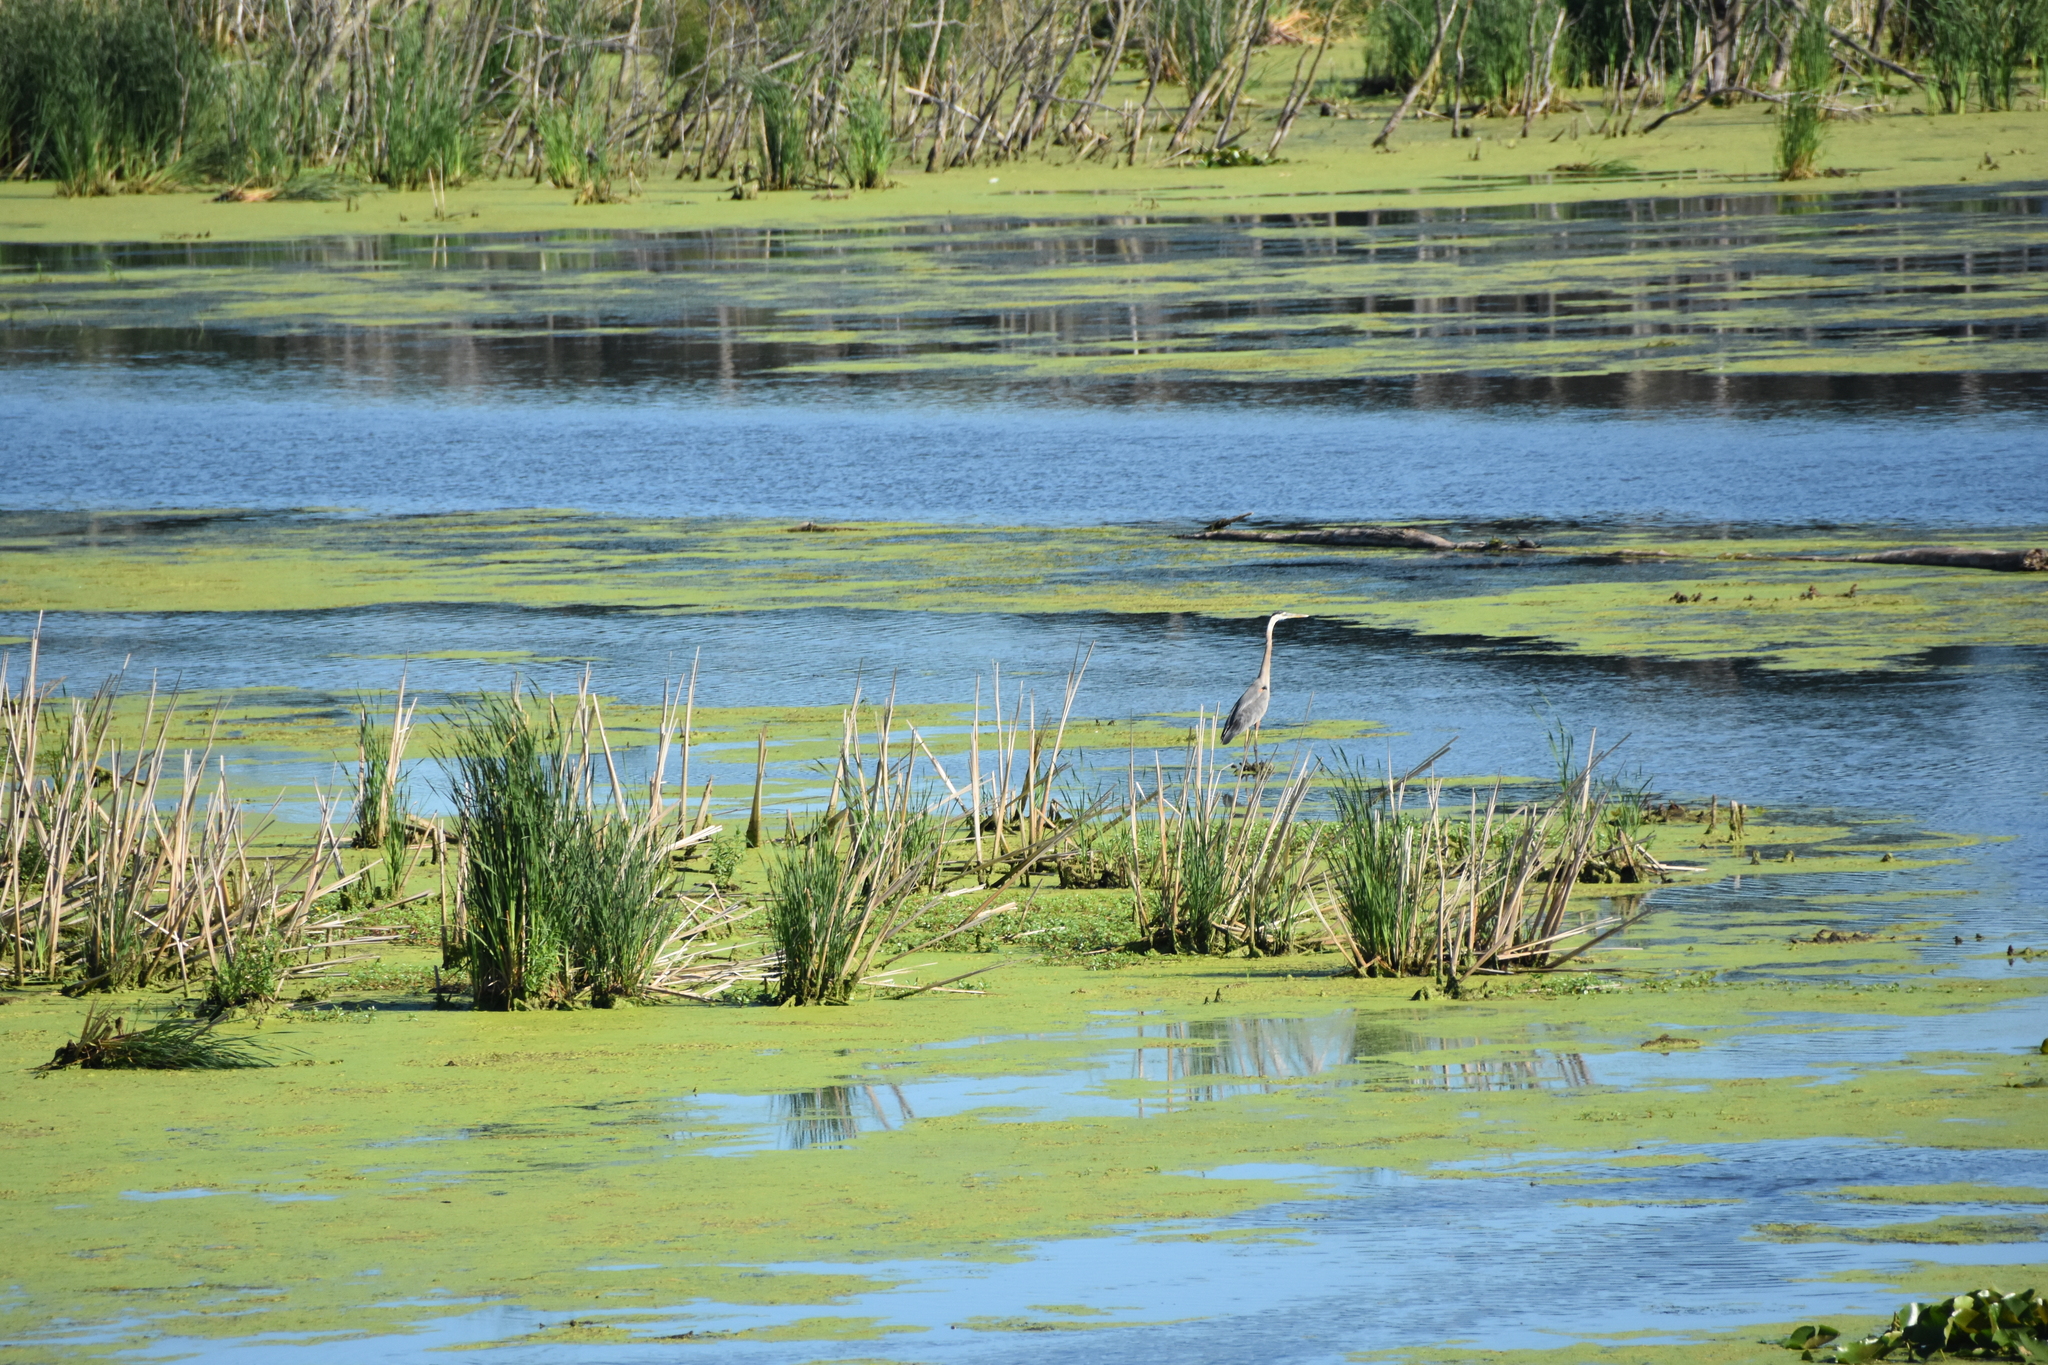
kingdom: Animalia
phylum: Chordata
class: Aves
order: Pelecaniformes
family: Ardeidae
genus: Ardea
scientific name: Ardea herodias
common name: Great blue heron
